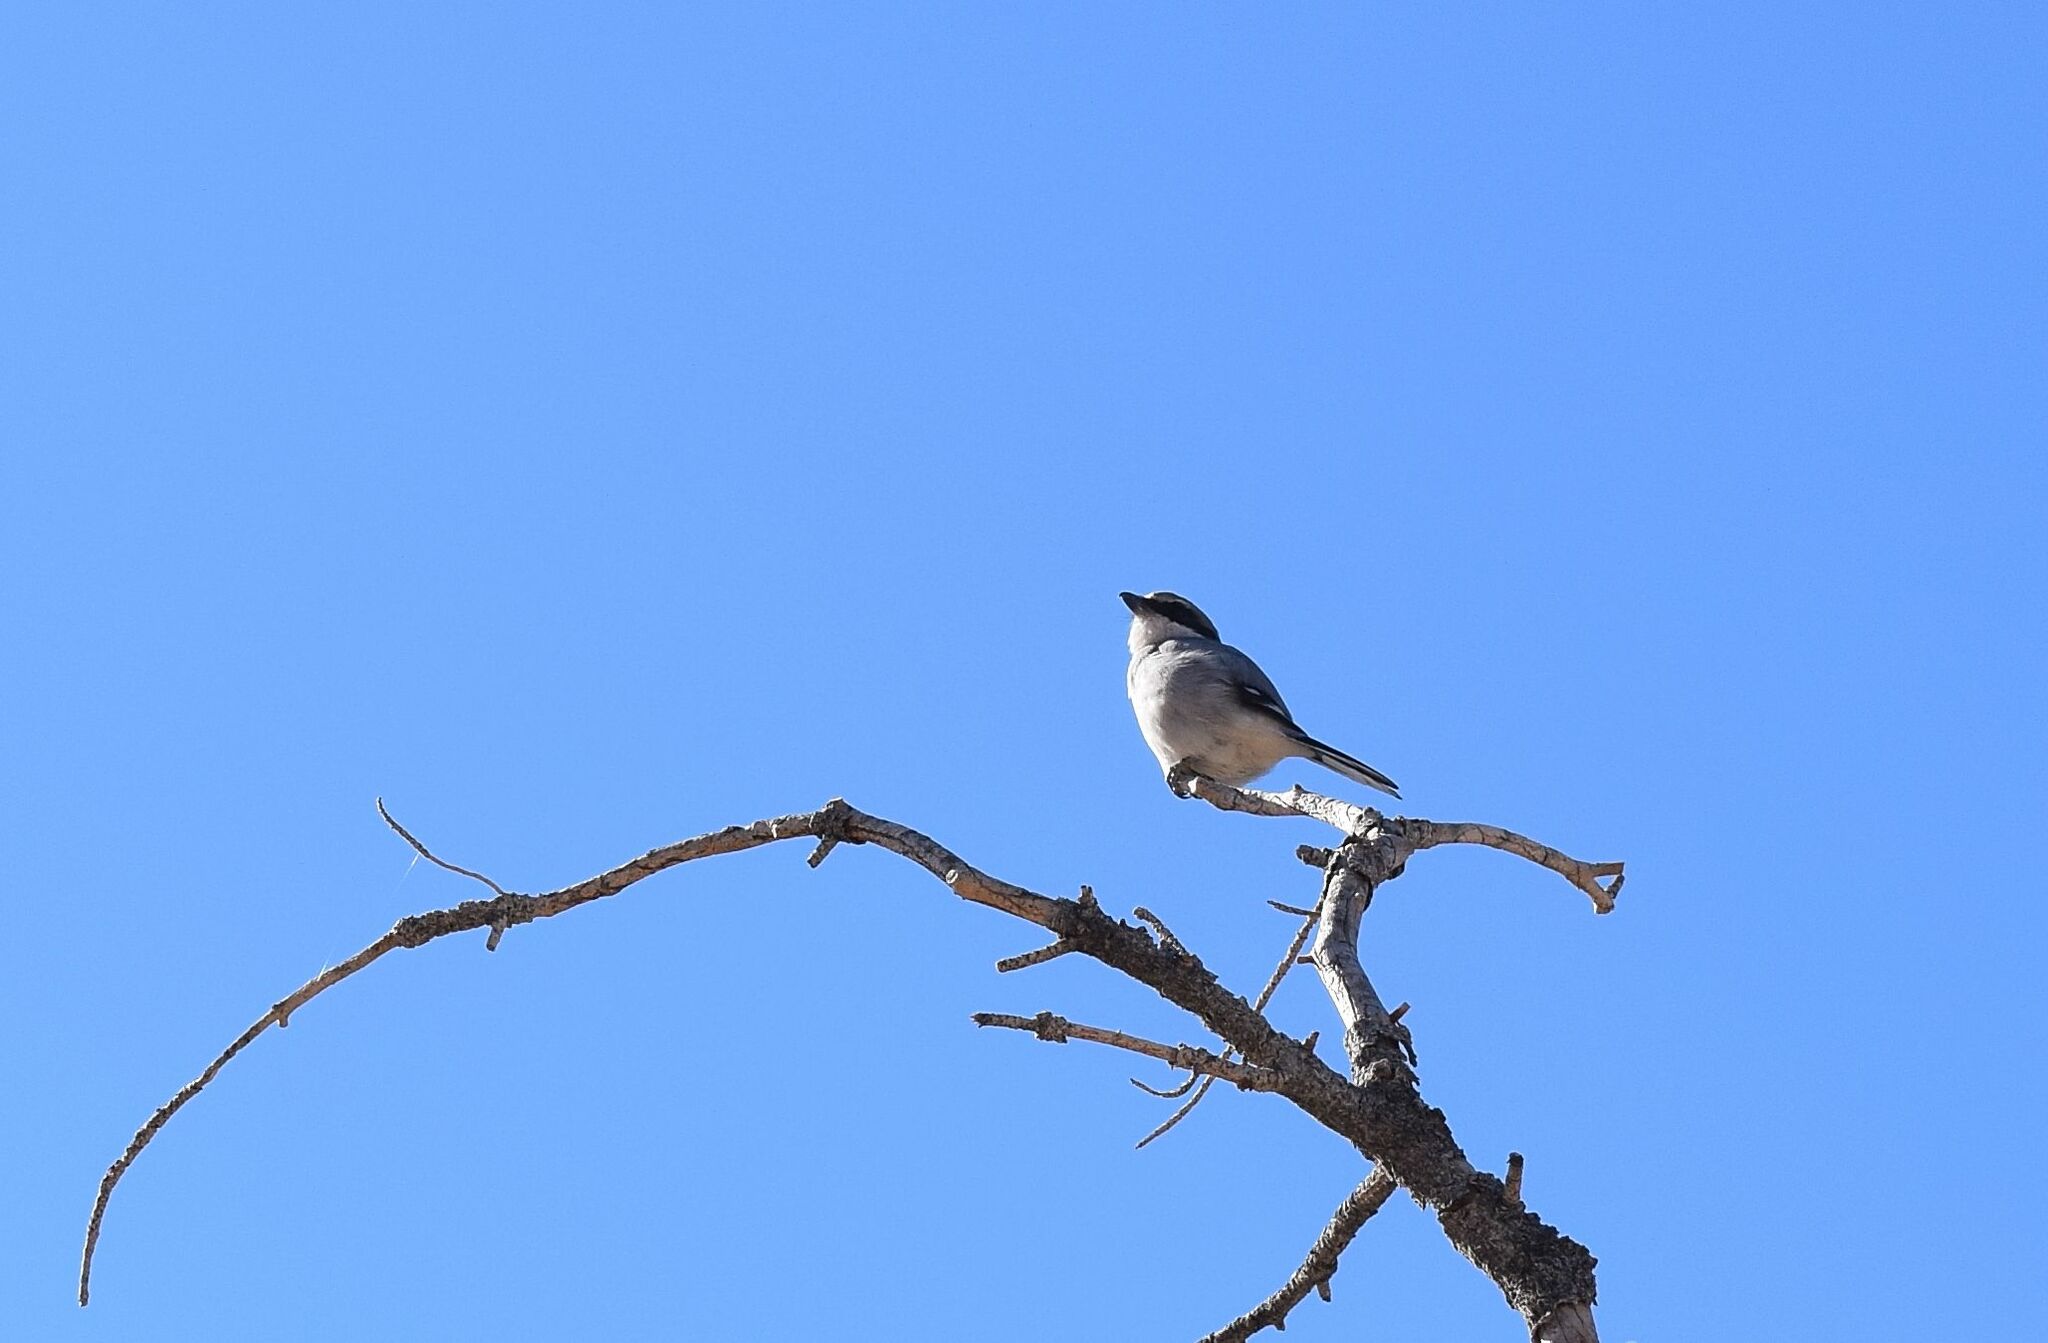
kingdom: Animalia
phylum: Chordata
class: Aves
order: Passeriformes
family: Laniidae
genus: Lanius
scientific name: Lanius ludovicianus
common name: Loggerhead shrike
